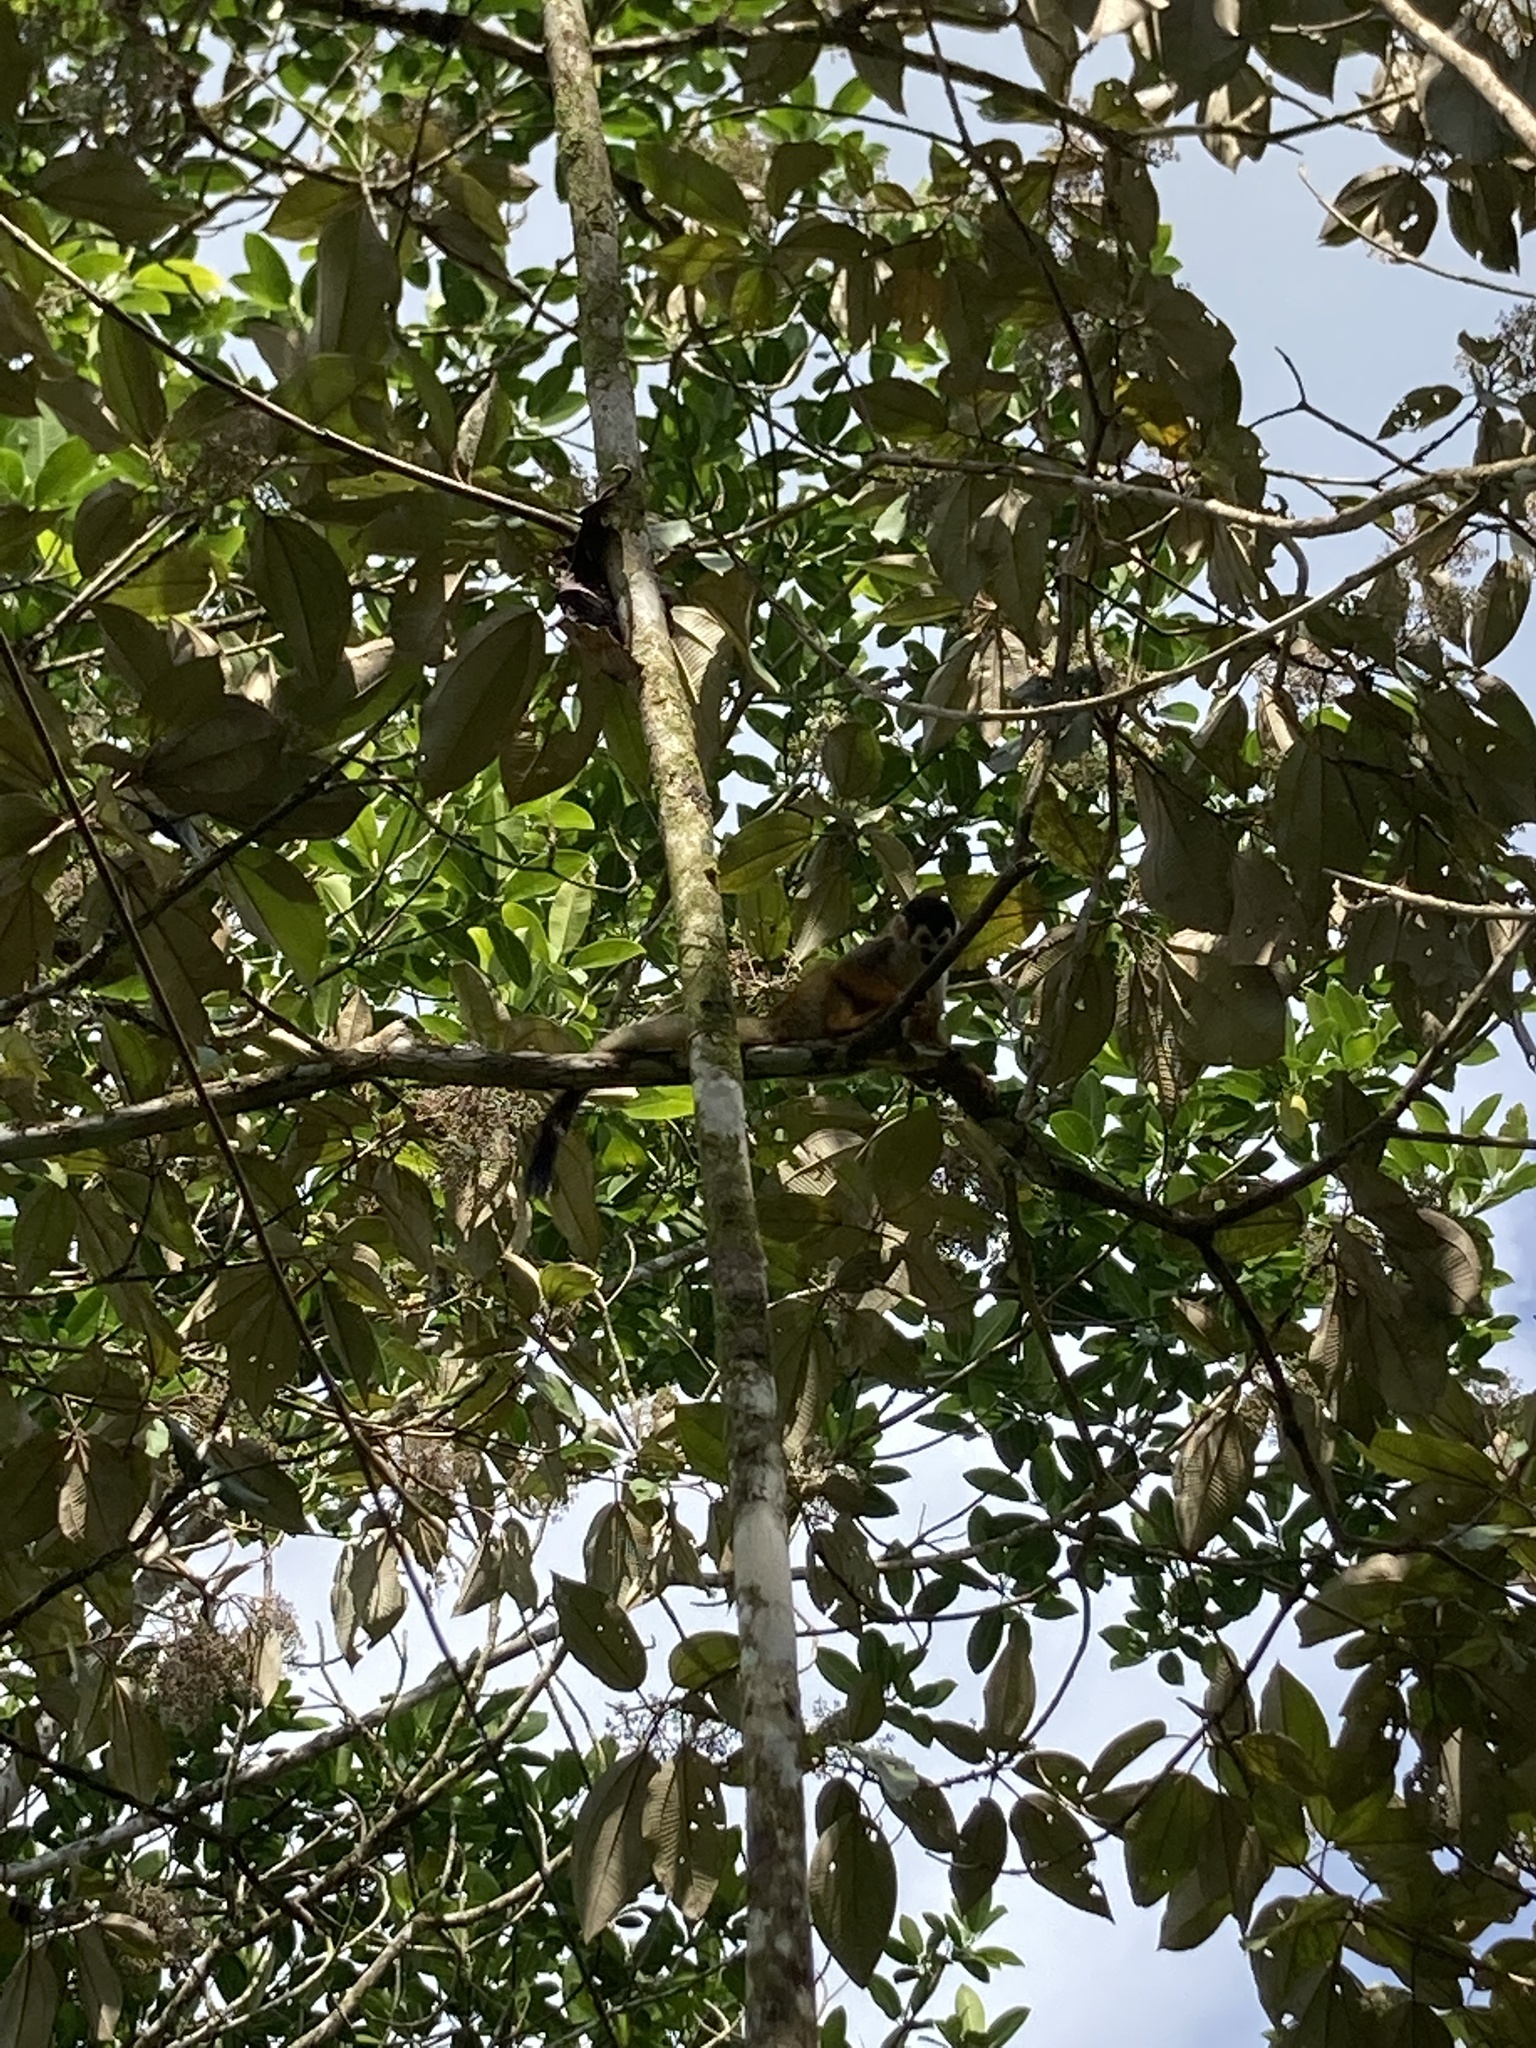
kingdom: Animalia
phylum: Chordata
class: Mammalia
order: Primates
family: Cebidae
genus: Saimiri
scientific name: Saimiri oerstedii
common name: Central american squirrel monkey
